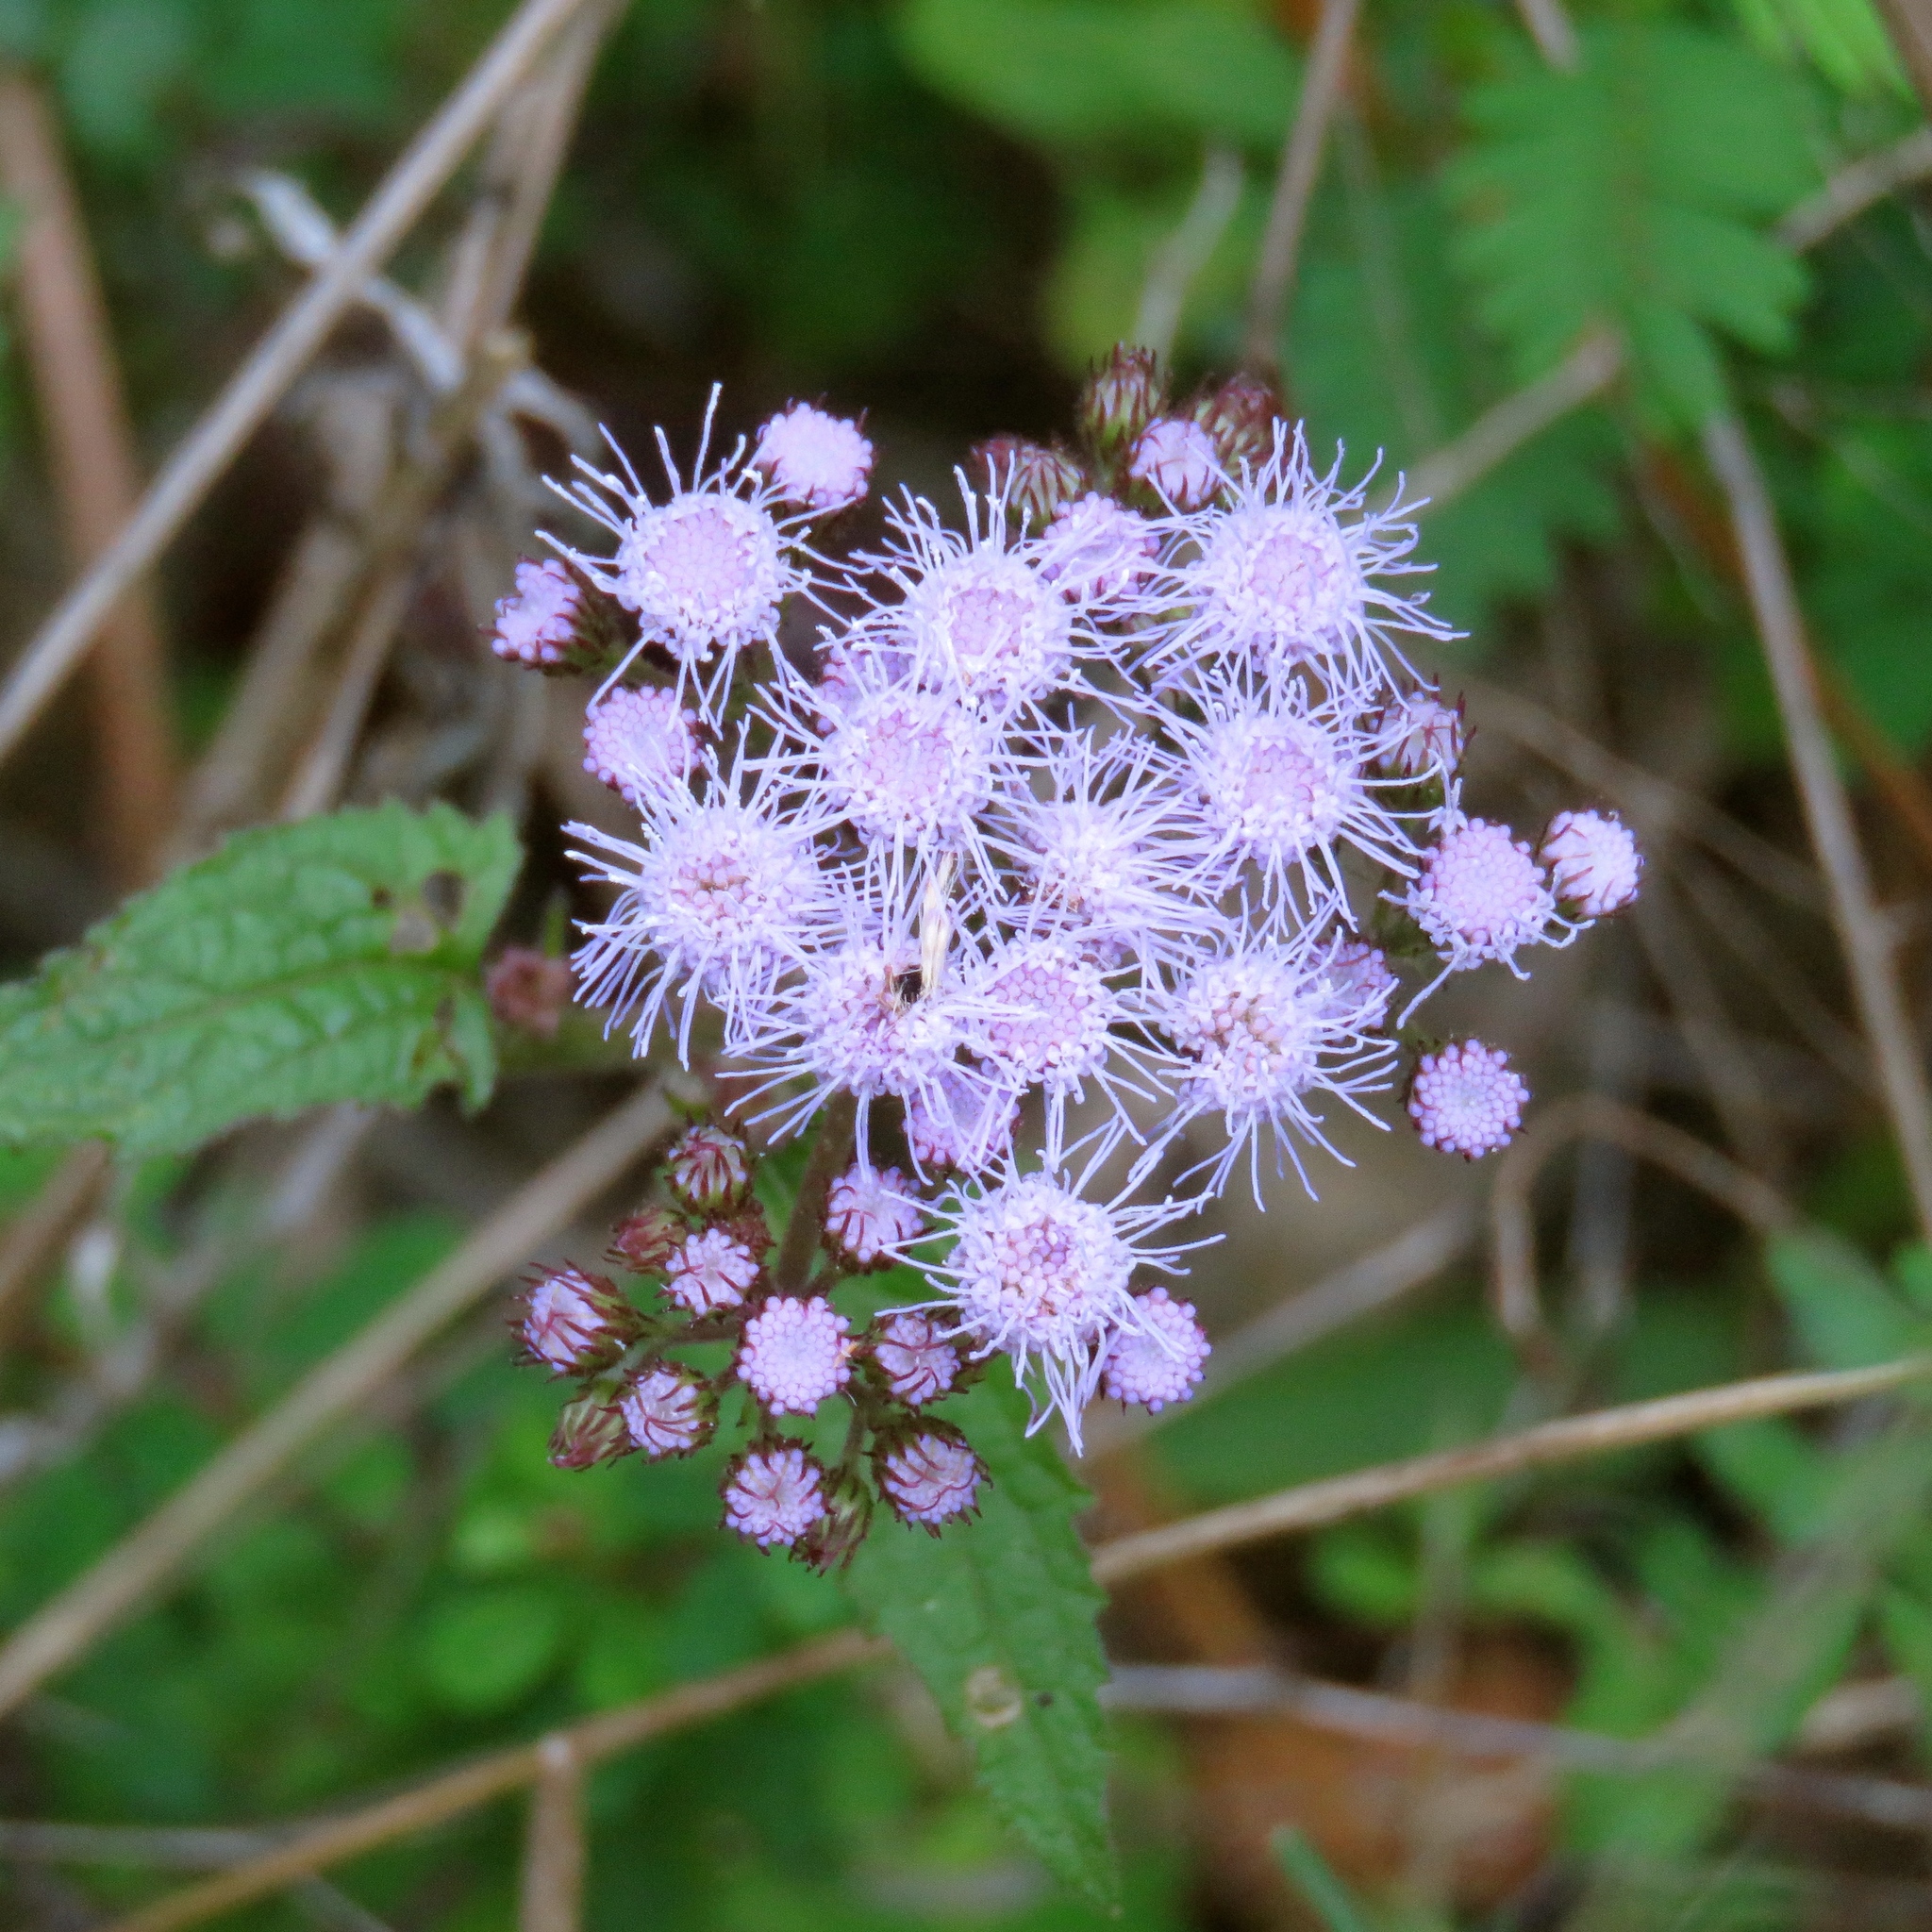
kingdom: Plantae
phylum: Tracheophyta
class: Magnoliopsida
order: Asterales
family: Asteraceae
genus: Conoclinium
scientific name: Conoclinium coelestinum
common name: Blue mistflower
